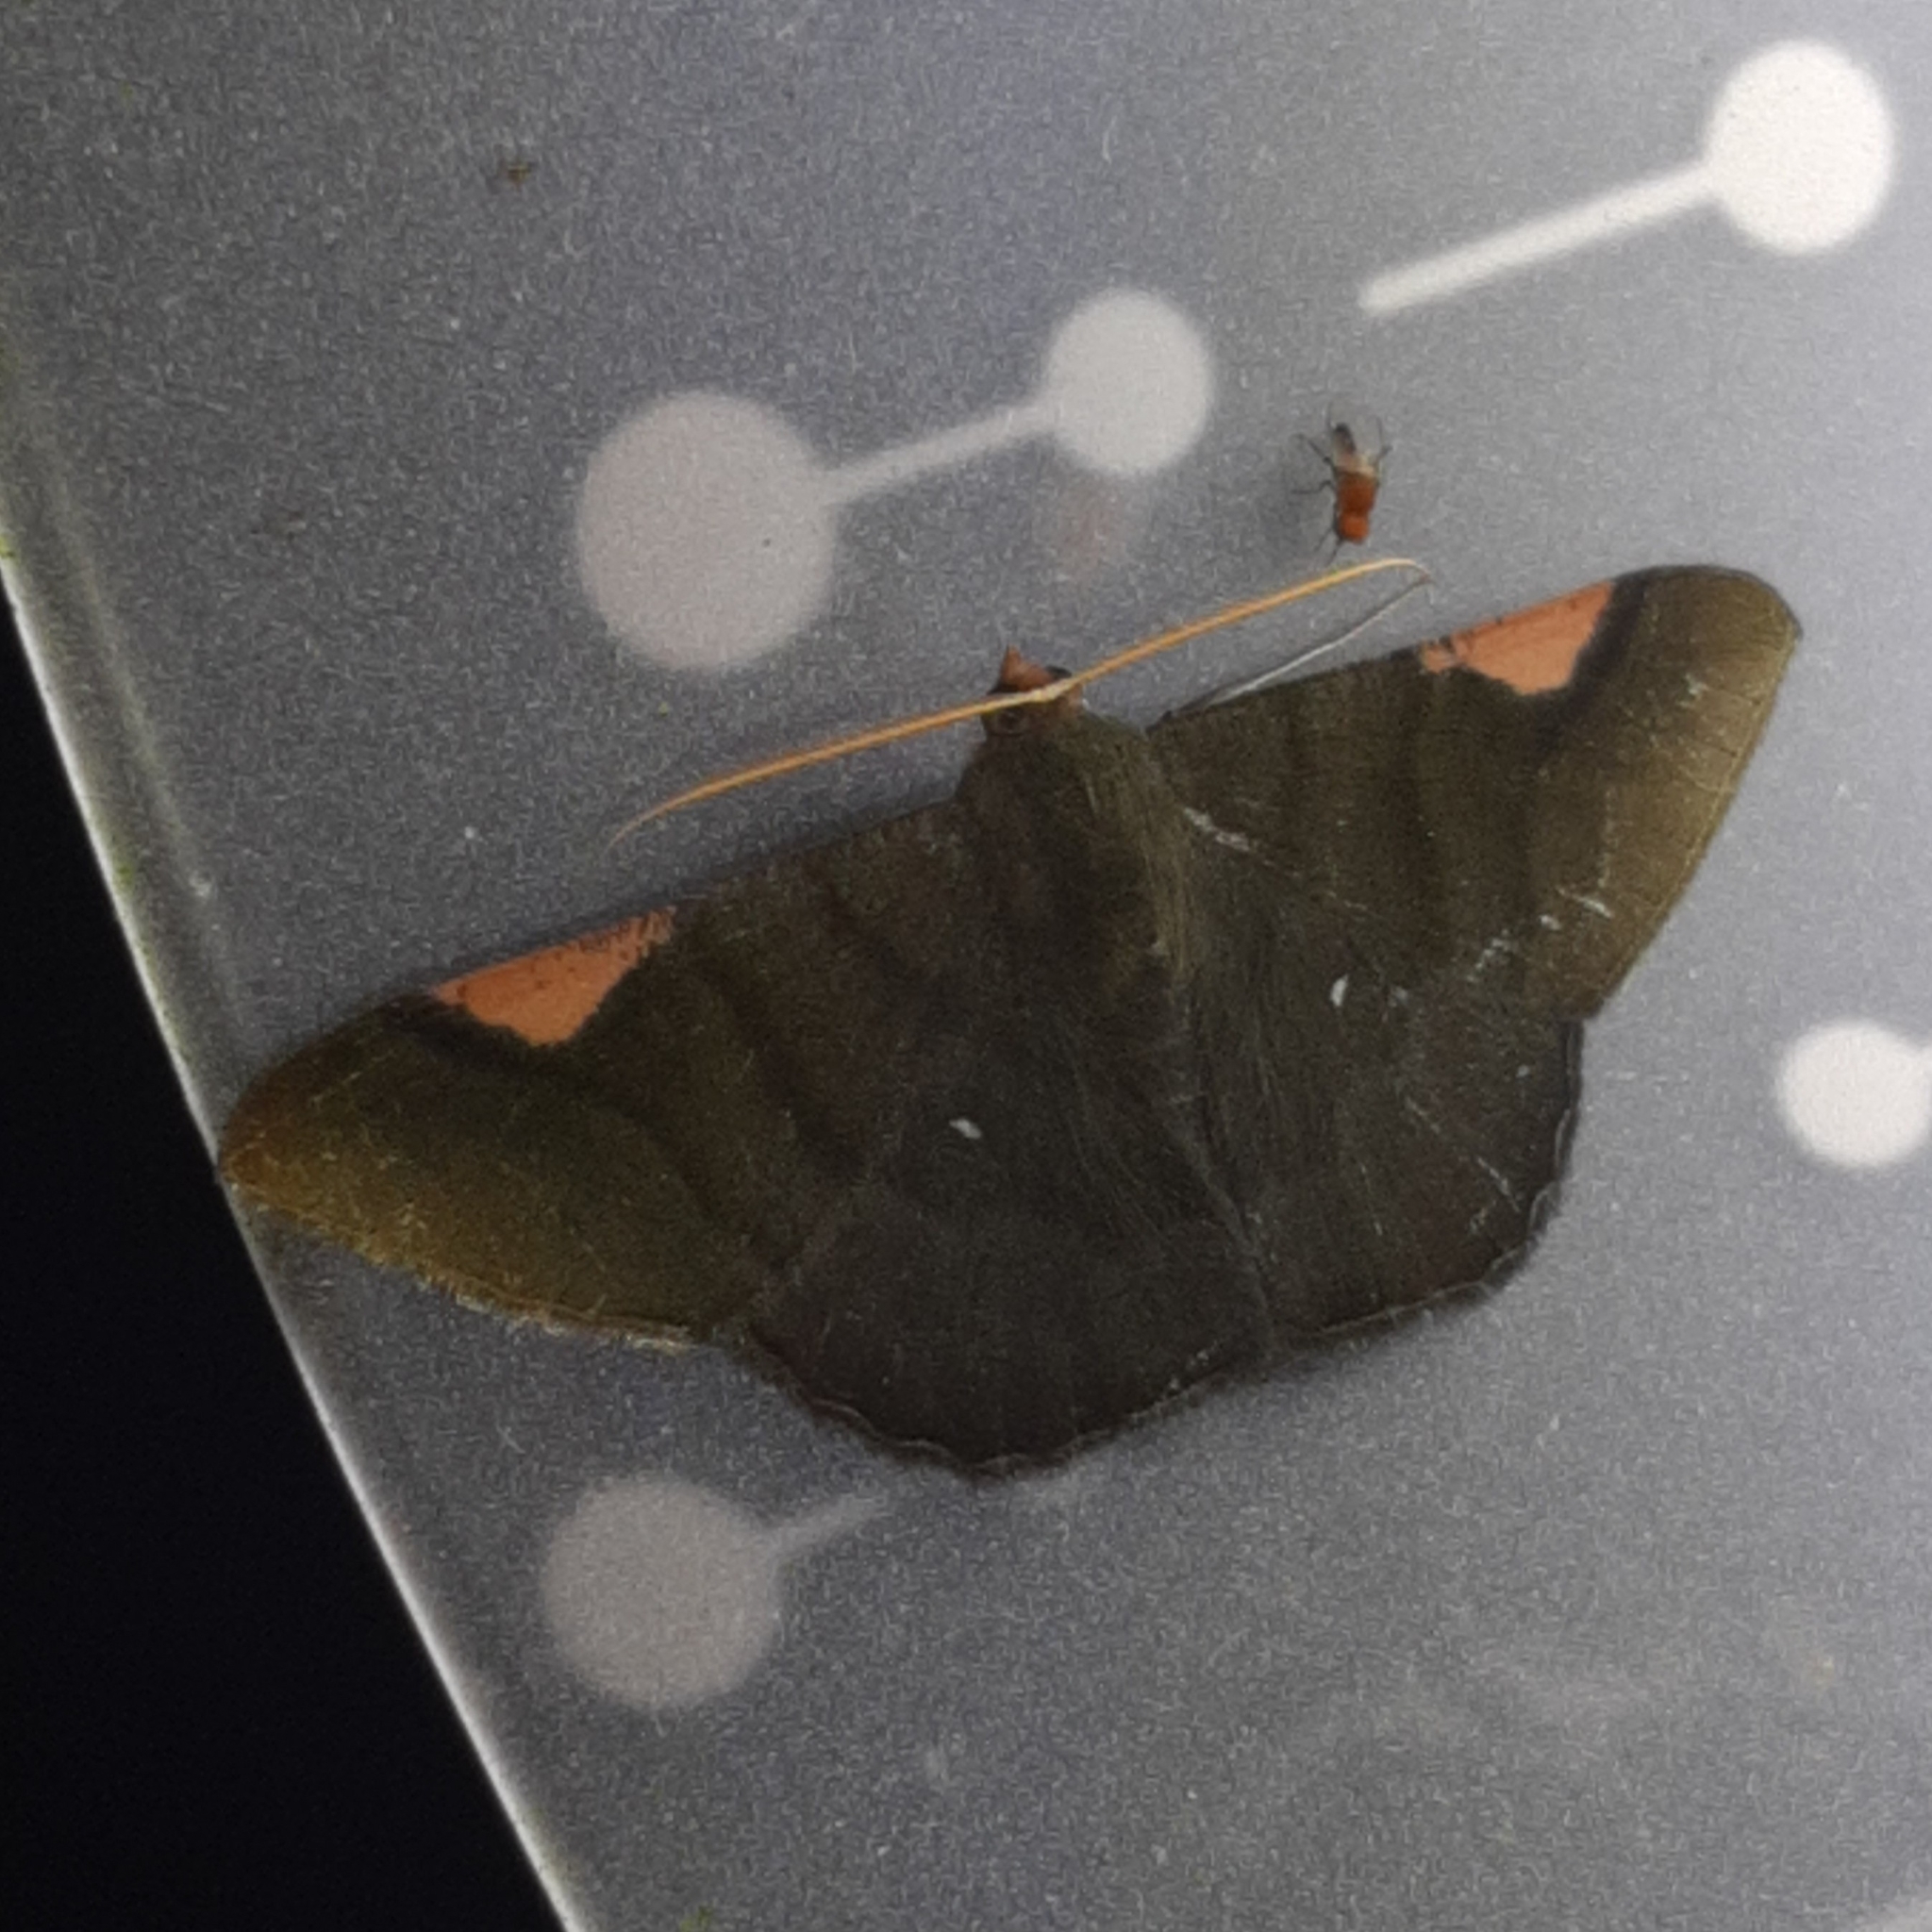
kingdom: Animalia
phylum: Arthropoda
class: Insecta
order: Lepidoptera
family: Geometridae
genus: Sphacelodes
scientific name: Sphacelodes vulneraria
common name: Looper moth
